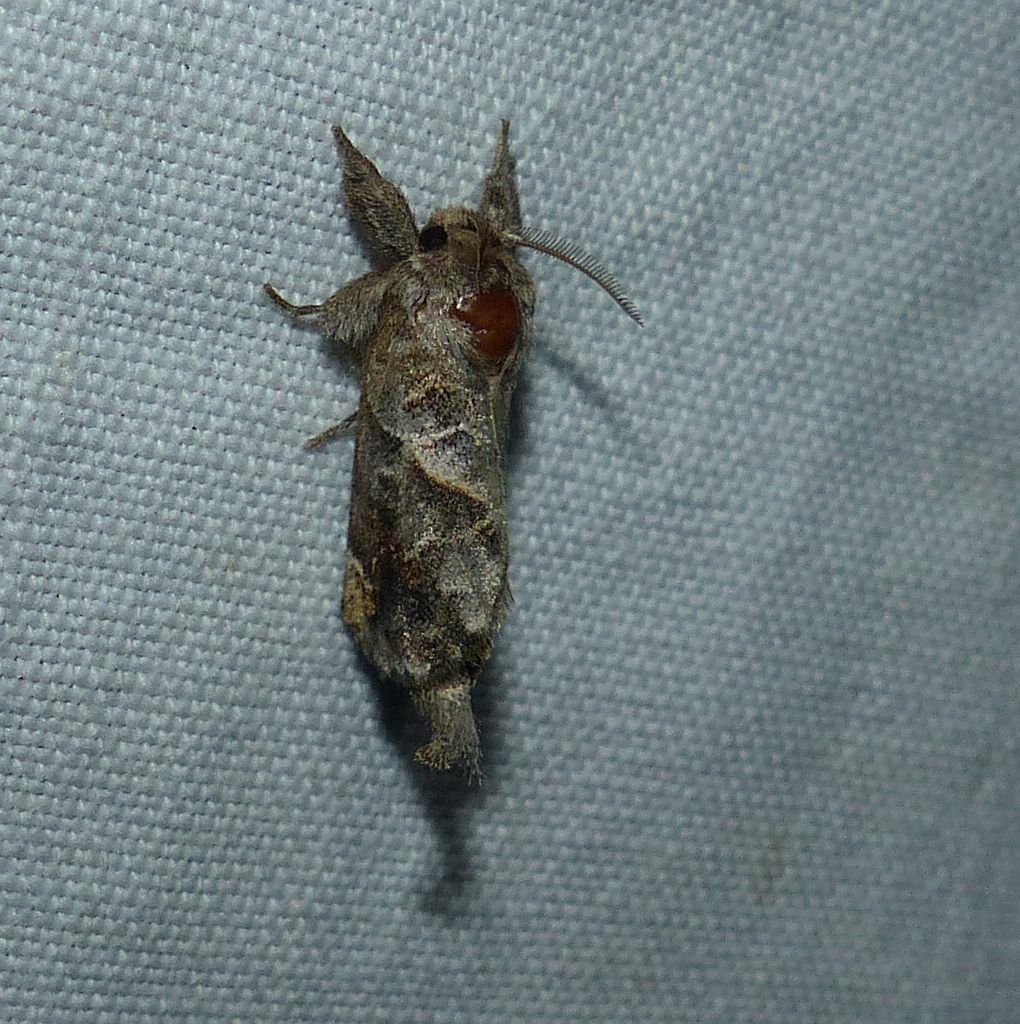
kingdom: Animalia
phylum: Arthropoda
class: Insecta
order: Lepidoptera
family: Notodontidae
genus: Clostera
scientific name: Clostera strigosa
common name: Striped chocolate-tip moth
